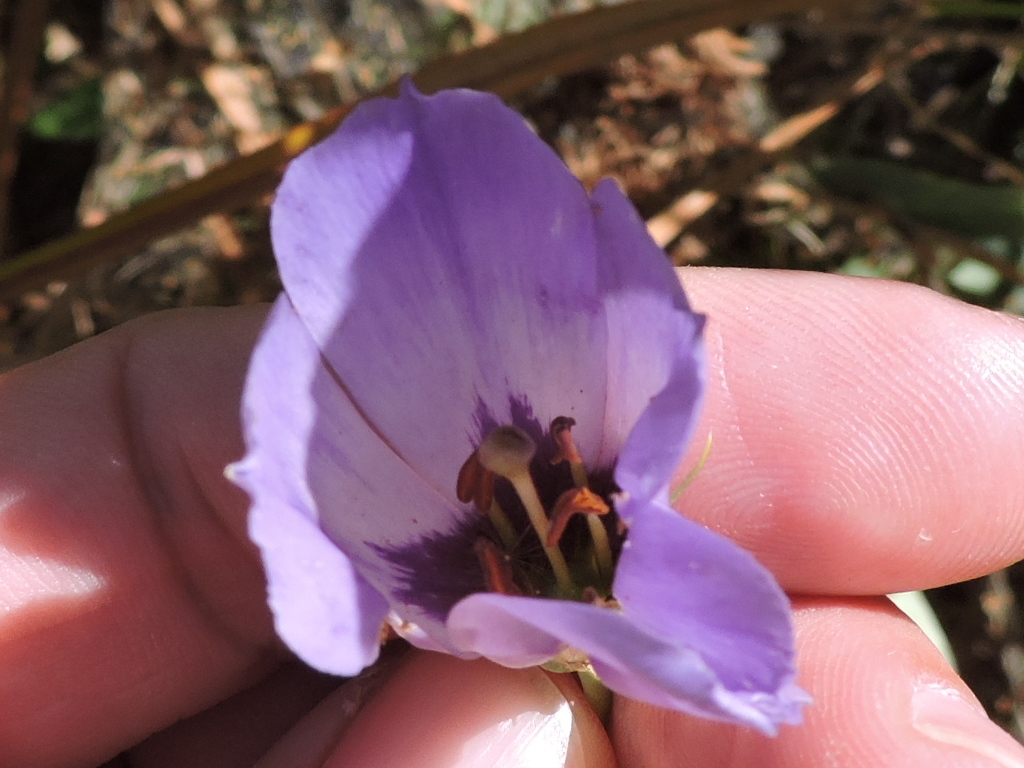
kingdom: Plantae
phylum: Tracheophyta
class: Magnoliopsida
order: Gentianales
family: Gentianaceae
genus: Eustoma
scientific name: Eustoma exaltatum
